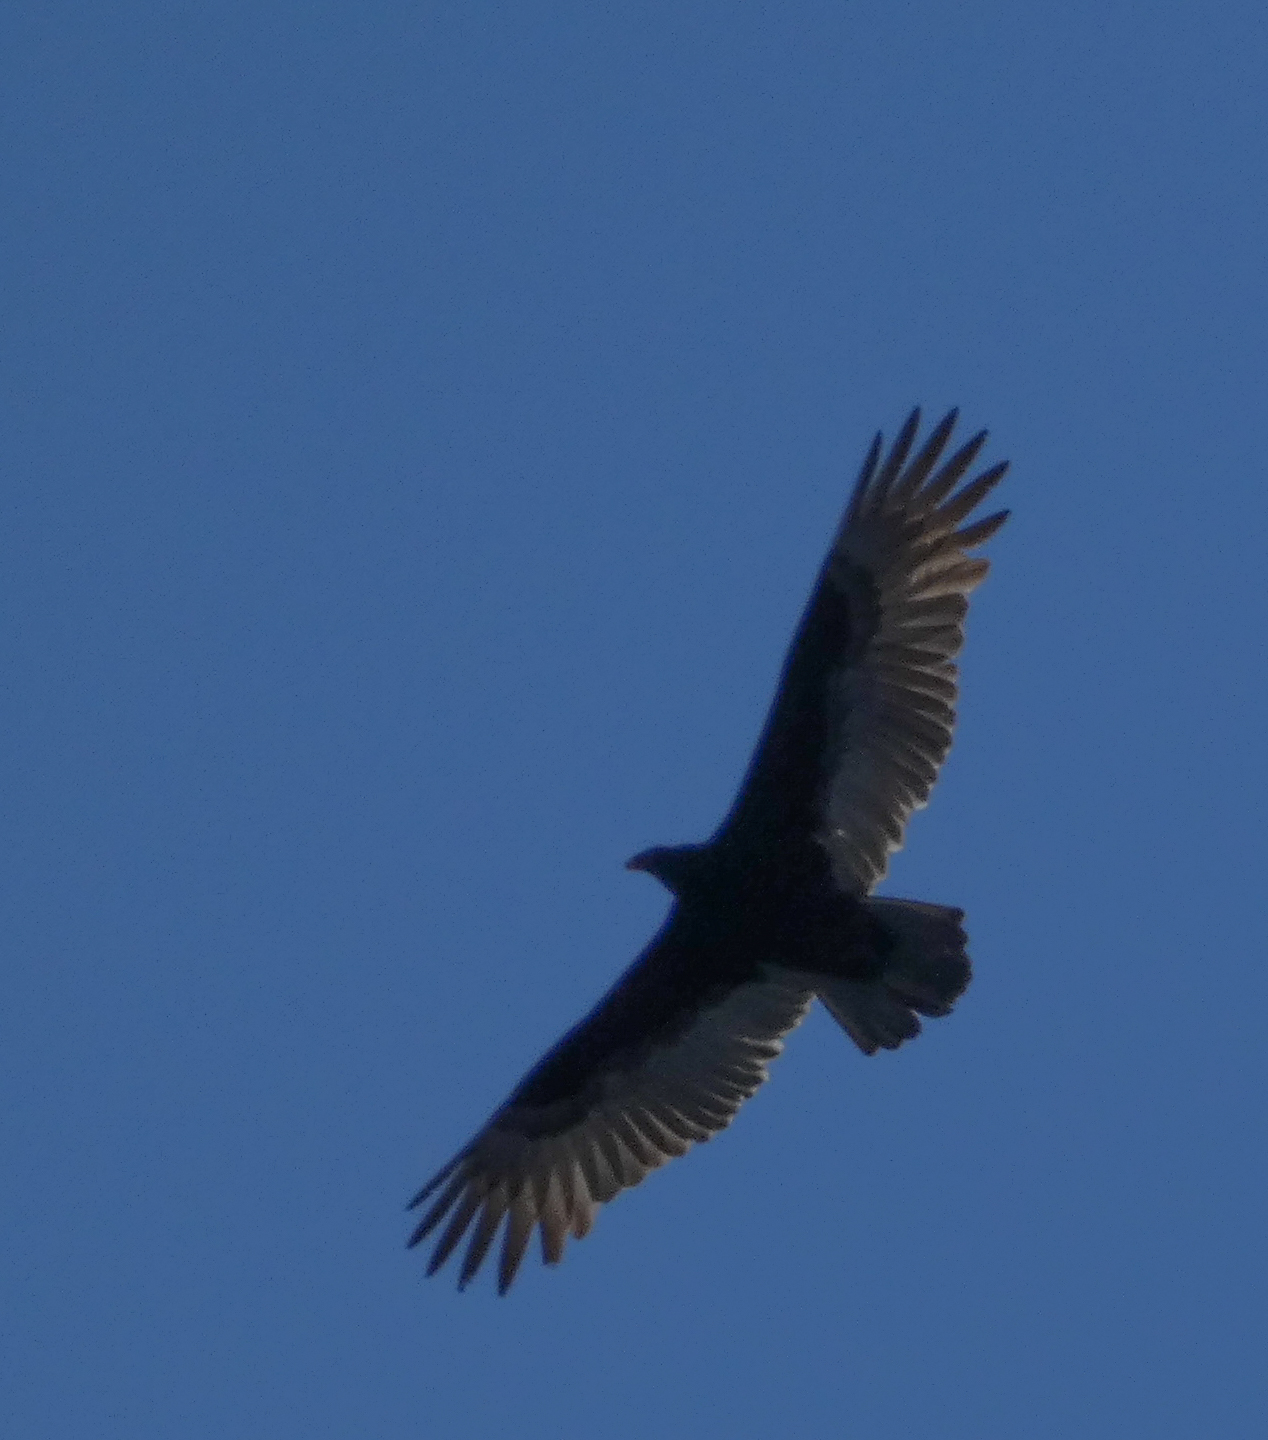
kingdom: Animalia
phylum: Chordata
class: Aves
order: Accipitriformes
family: Cathartidae
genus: Cathartes
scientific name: Cathartes aura
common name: Turkey vulture
